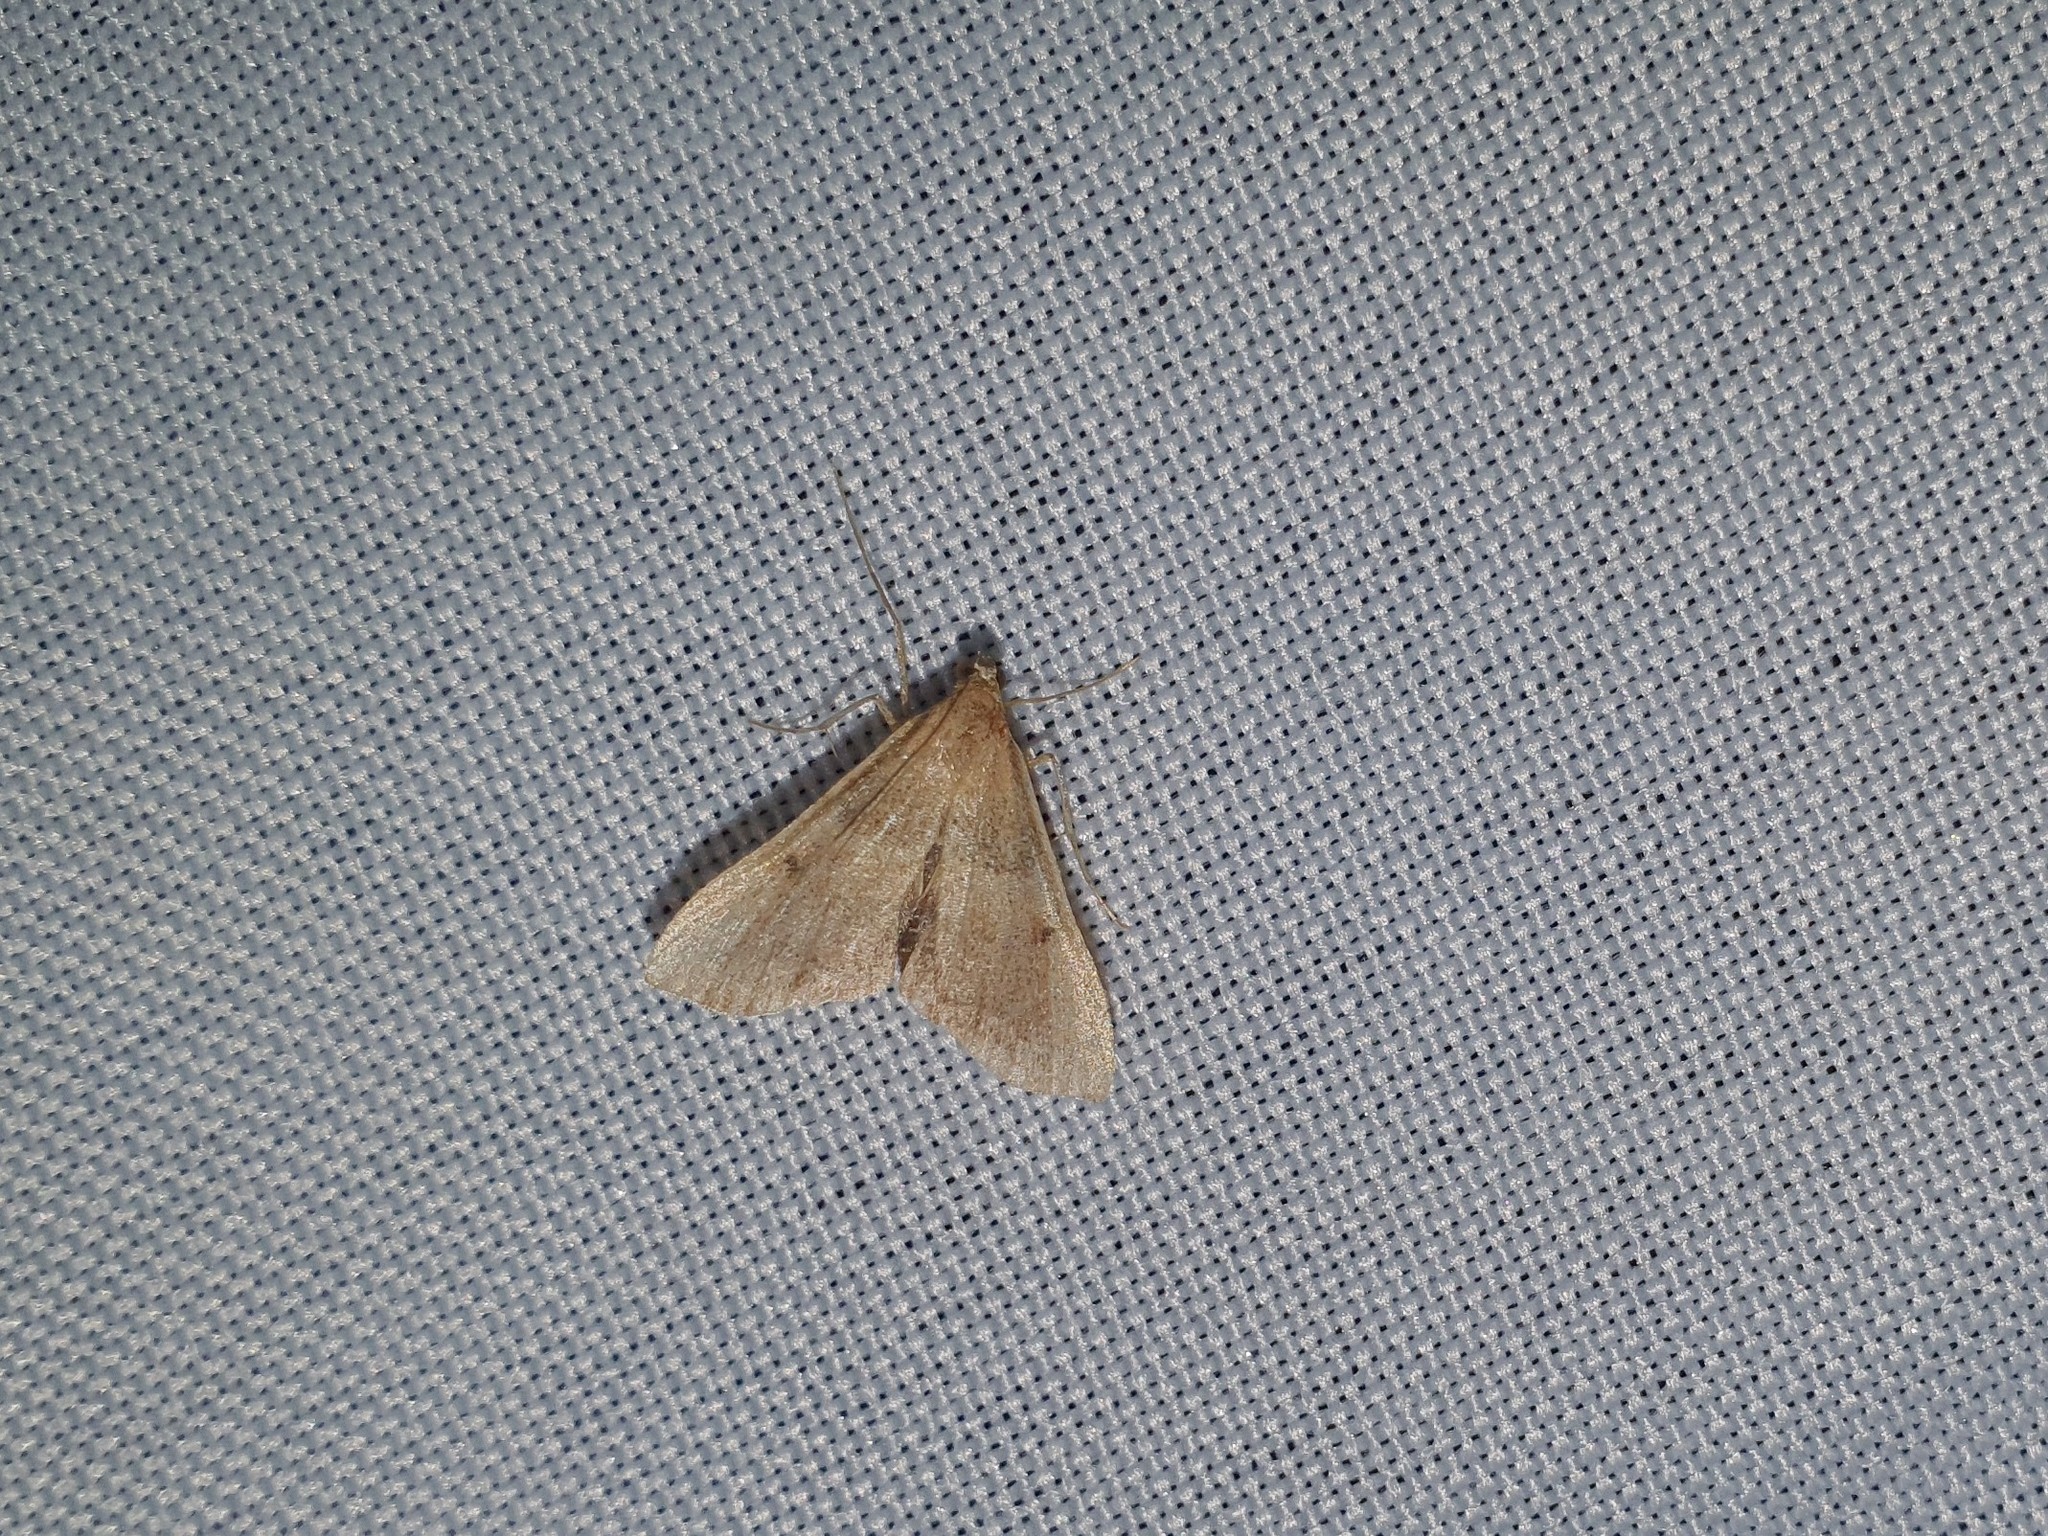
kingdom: Animalia
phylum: Arthropoda
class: Insecta
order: Lepidoptera
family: Pyralidae
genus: Endotricha
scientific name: Endotricha flammealis
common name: Rosy tabby
